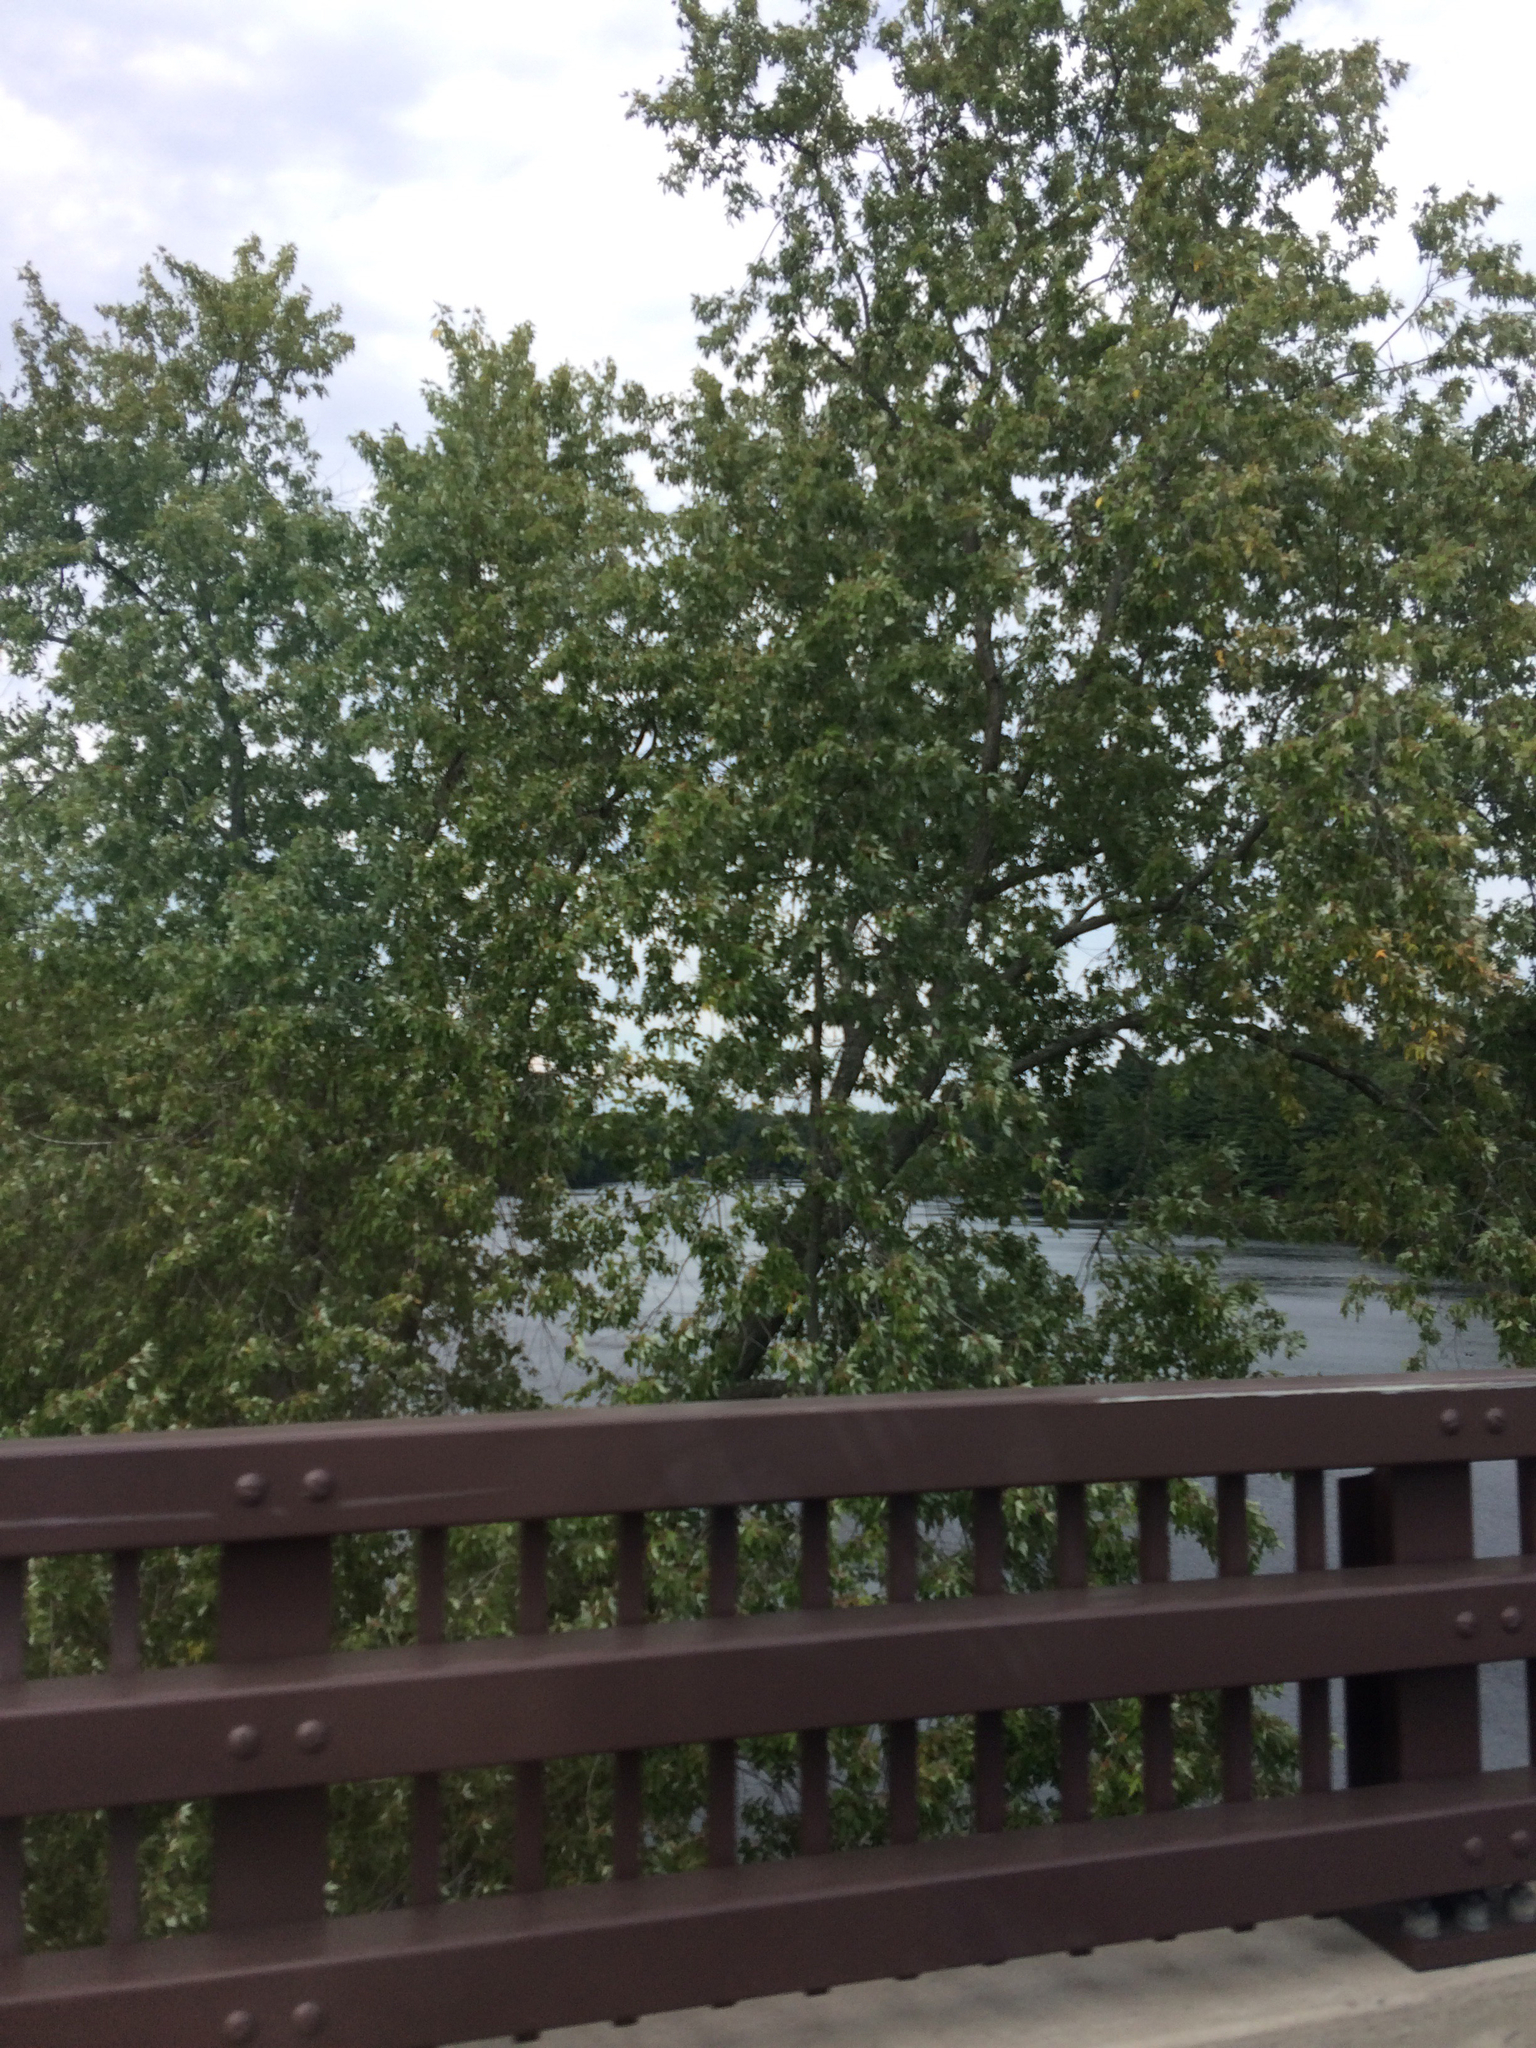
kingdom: Plantae
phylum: Tracheophyta
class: Magnoliopsida
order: Sapindales
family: Sapindaceae
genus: Acer
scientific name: Acer saccharinum
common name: Silver maple
